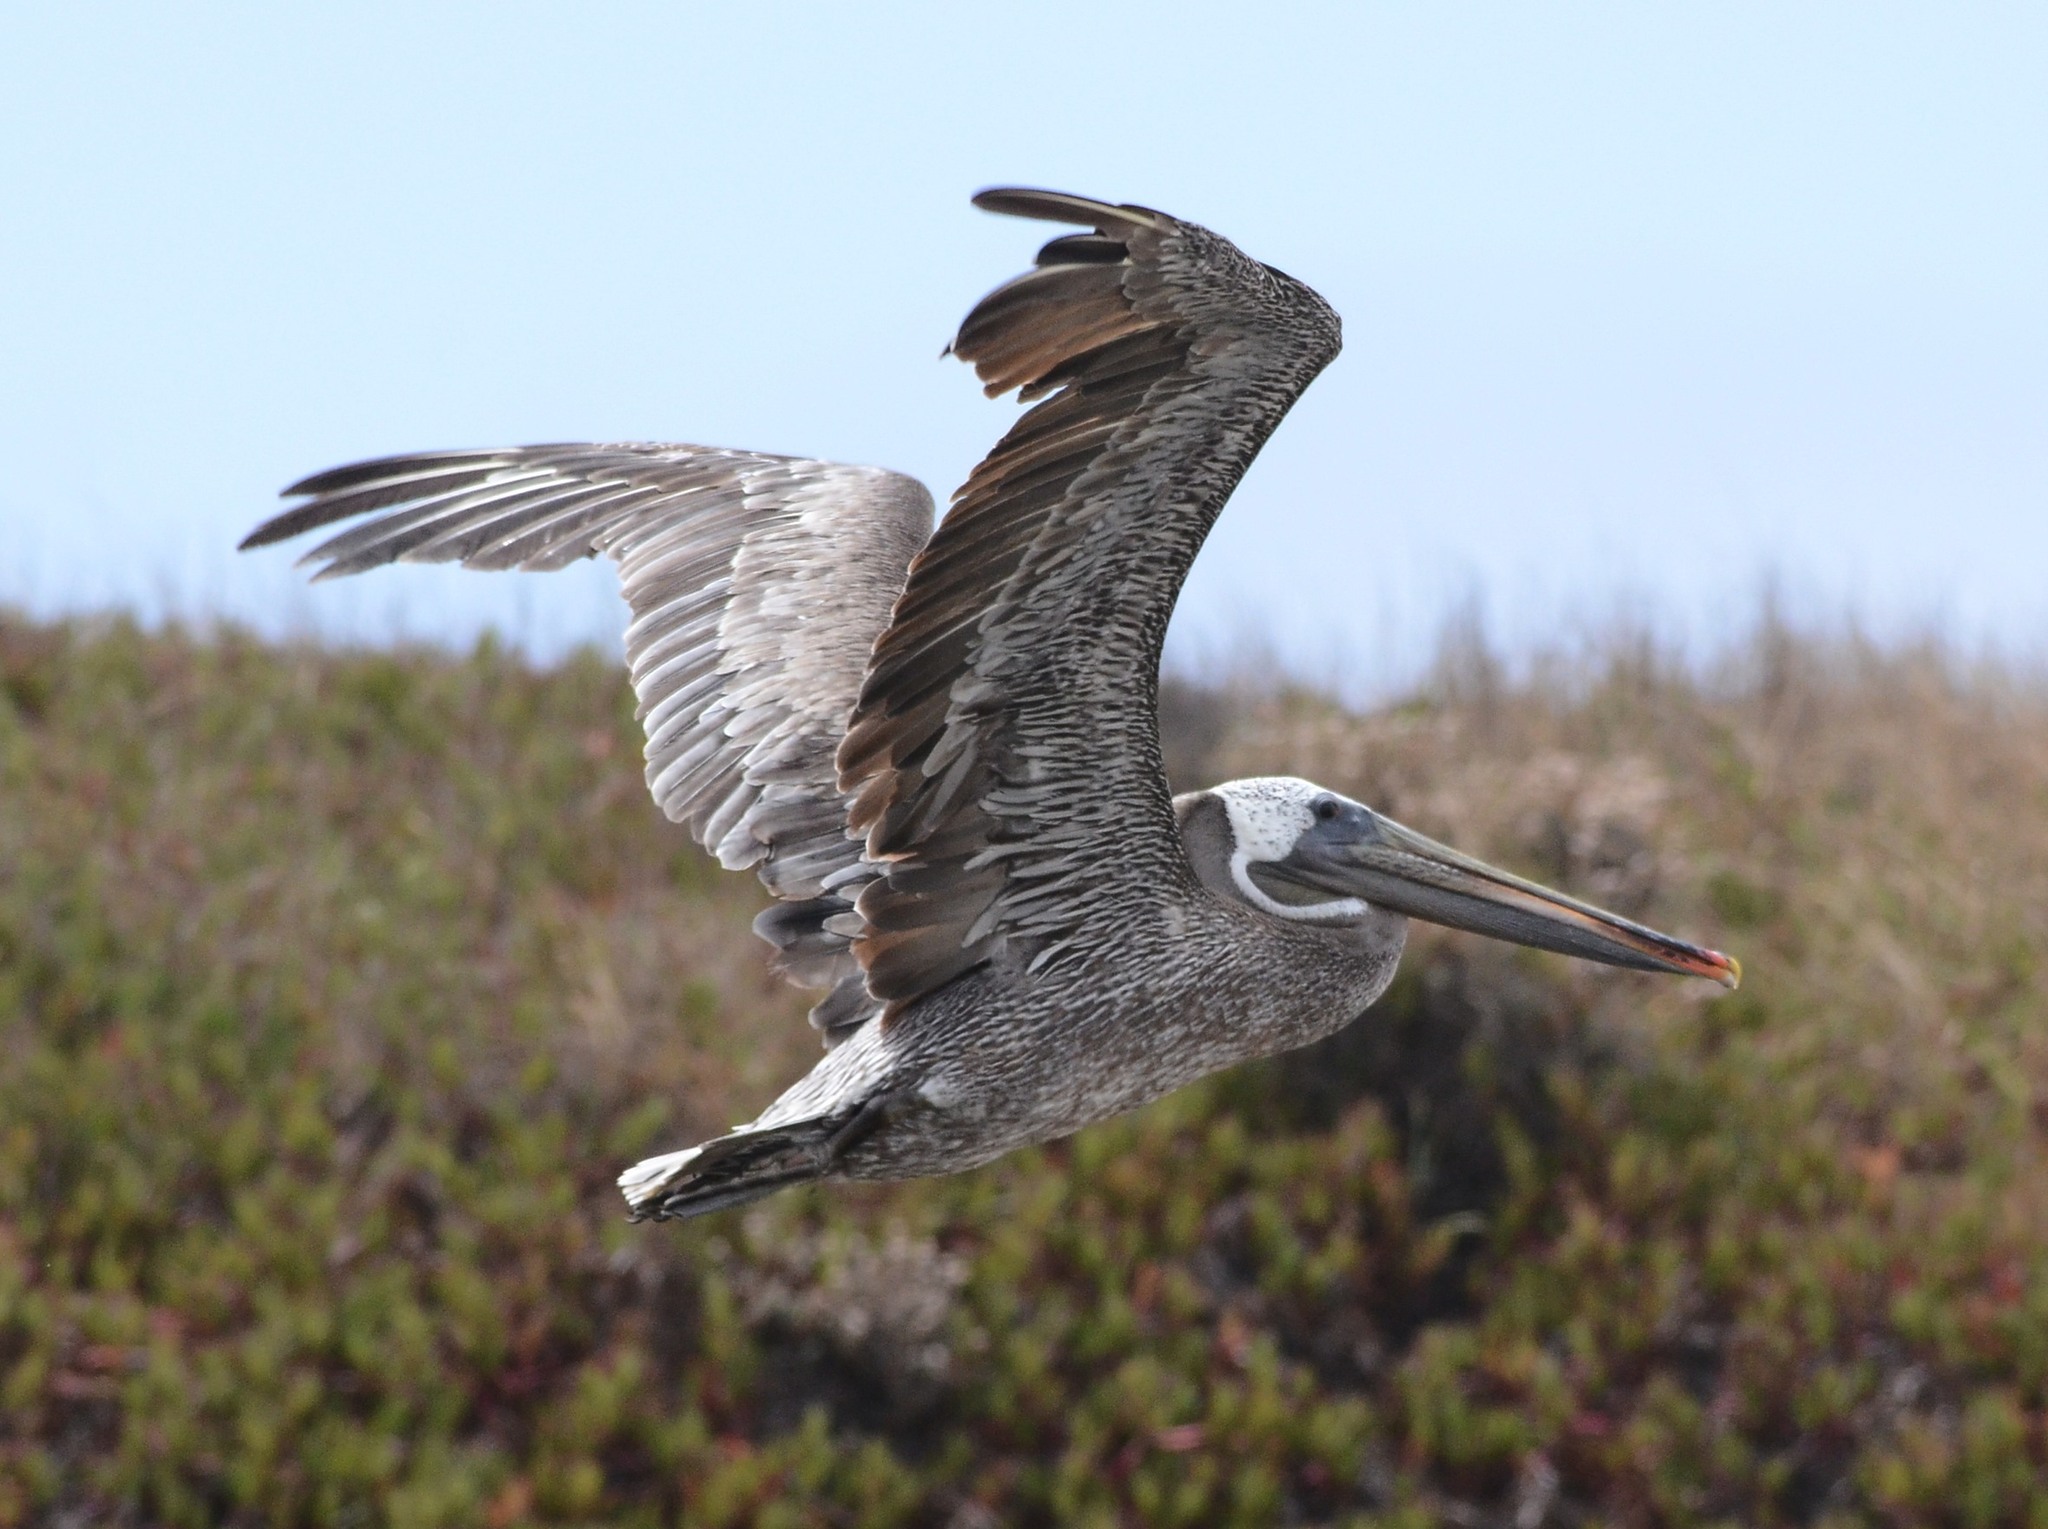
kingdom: Animalia
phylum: Chordata
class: Aves
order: Pelecaniformes
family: Pelecanidae
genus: Pelecanus
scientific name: Pelecanus occidentalis
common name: Brown pelican
